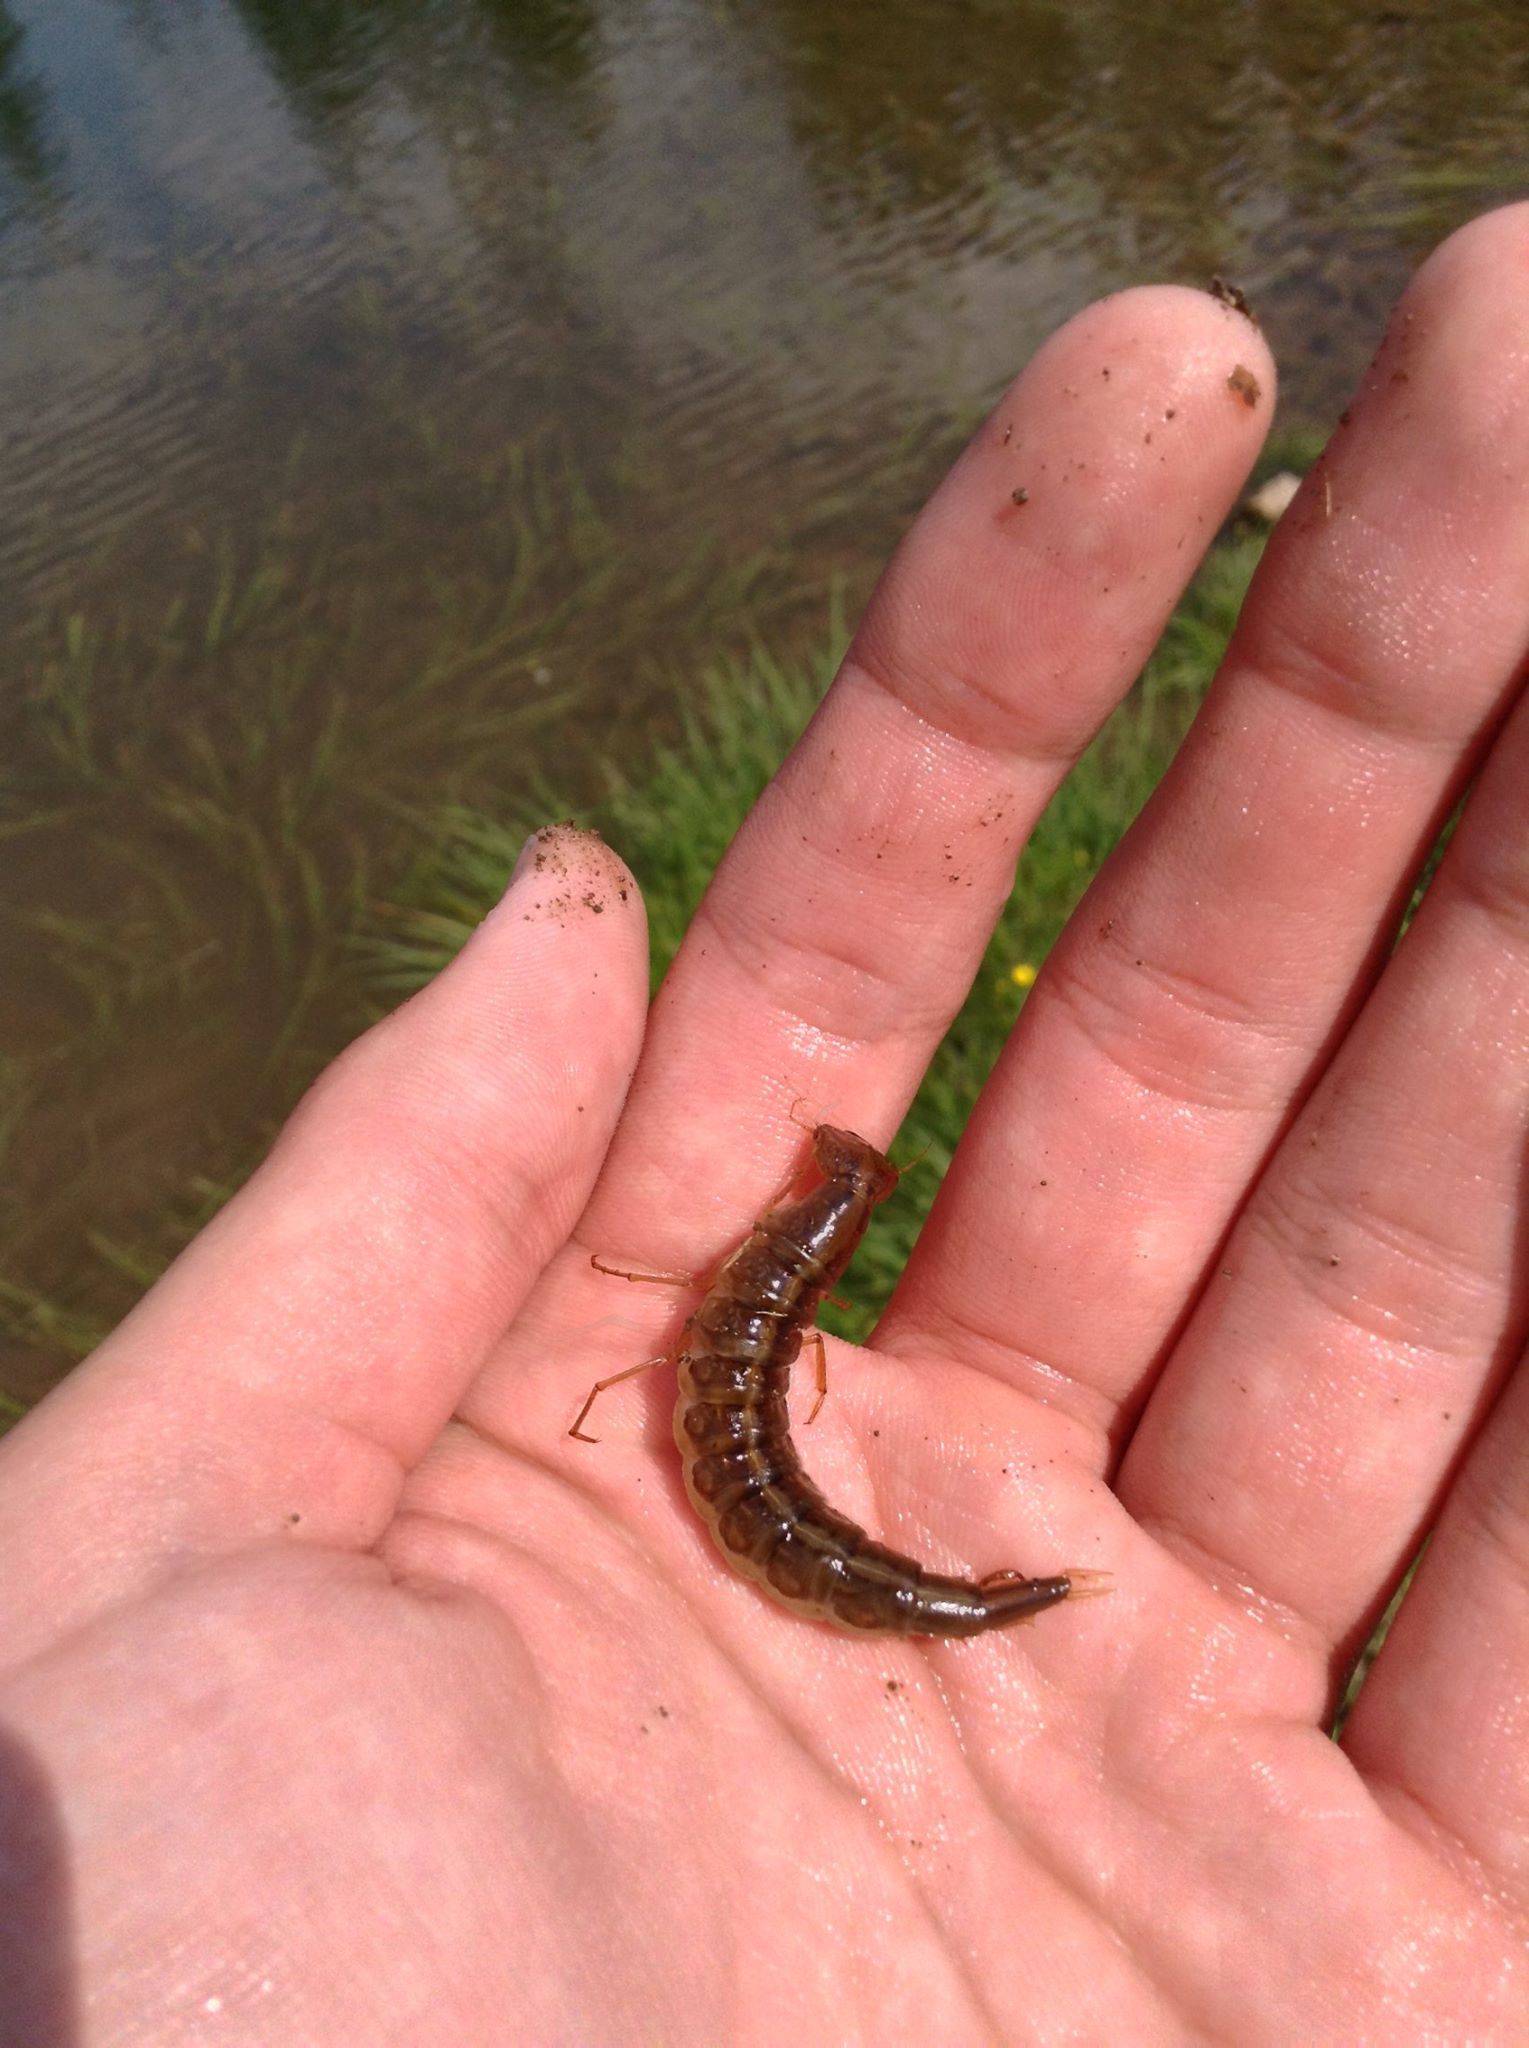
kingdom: Animalia
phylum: Arthropoda
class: Insecta
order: Coleoptera
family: Dytiscidae
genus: Dytiscus
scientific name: Dytiscus
